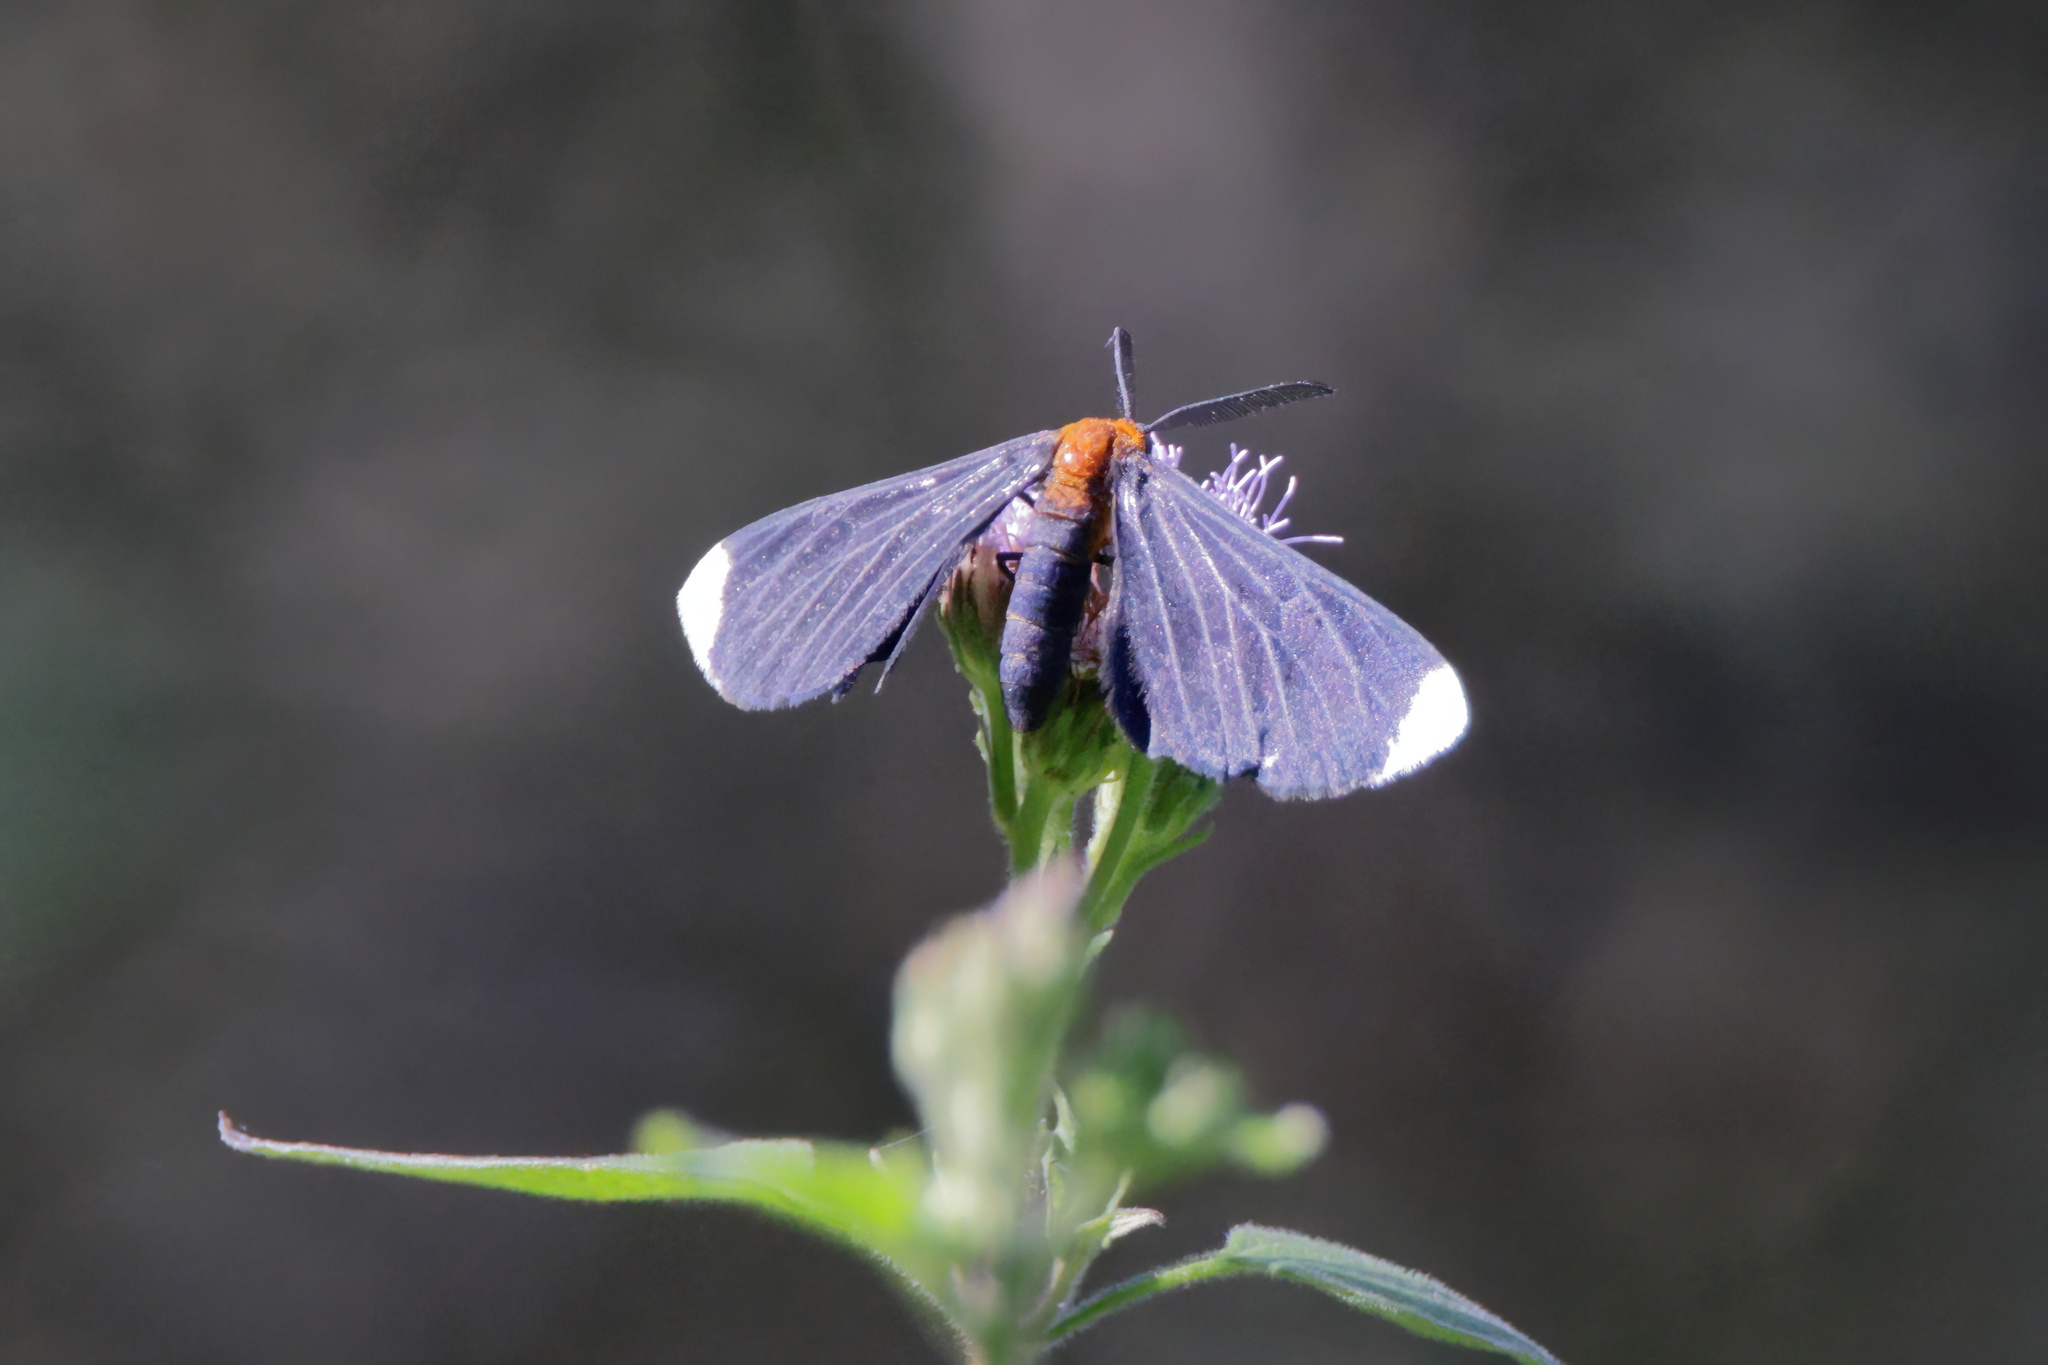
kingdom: Animalia
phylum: Arthropoda
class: Insecta
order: Lepidoptera
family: Geometridae
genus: Melanchroia
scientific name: Melanchroia chephise
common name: White-tipped black
